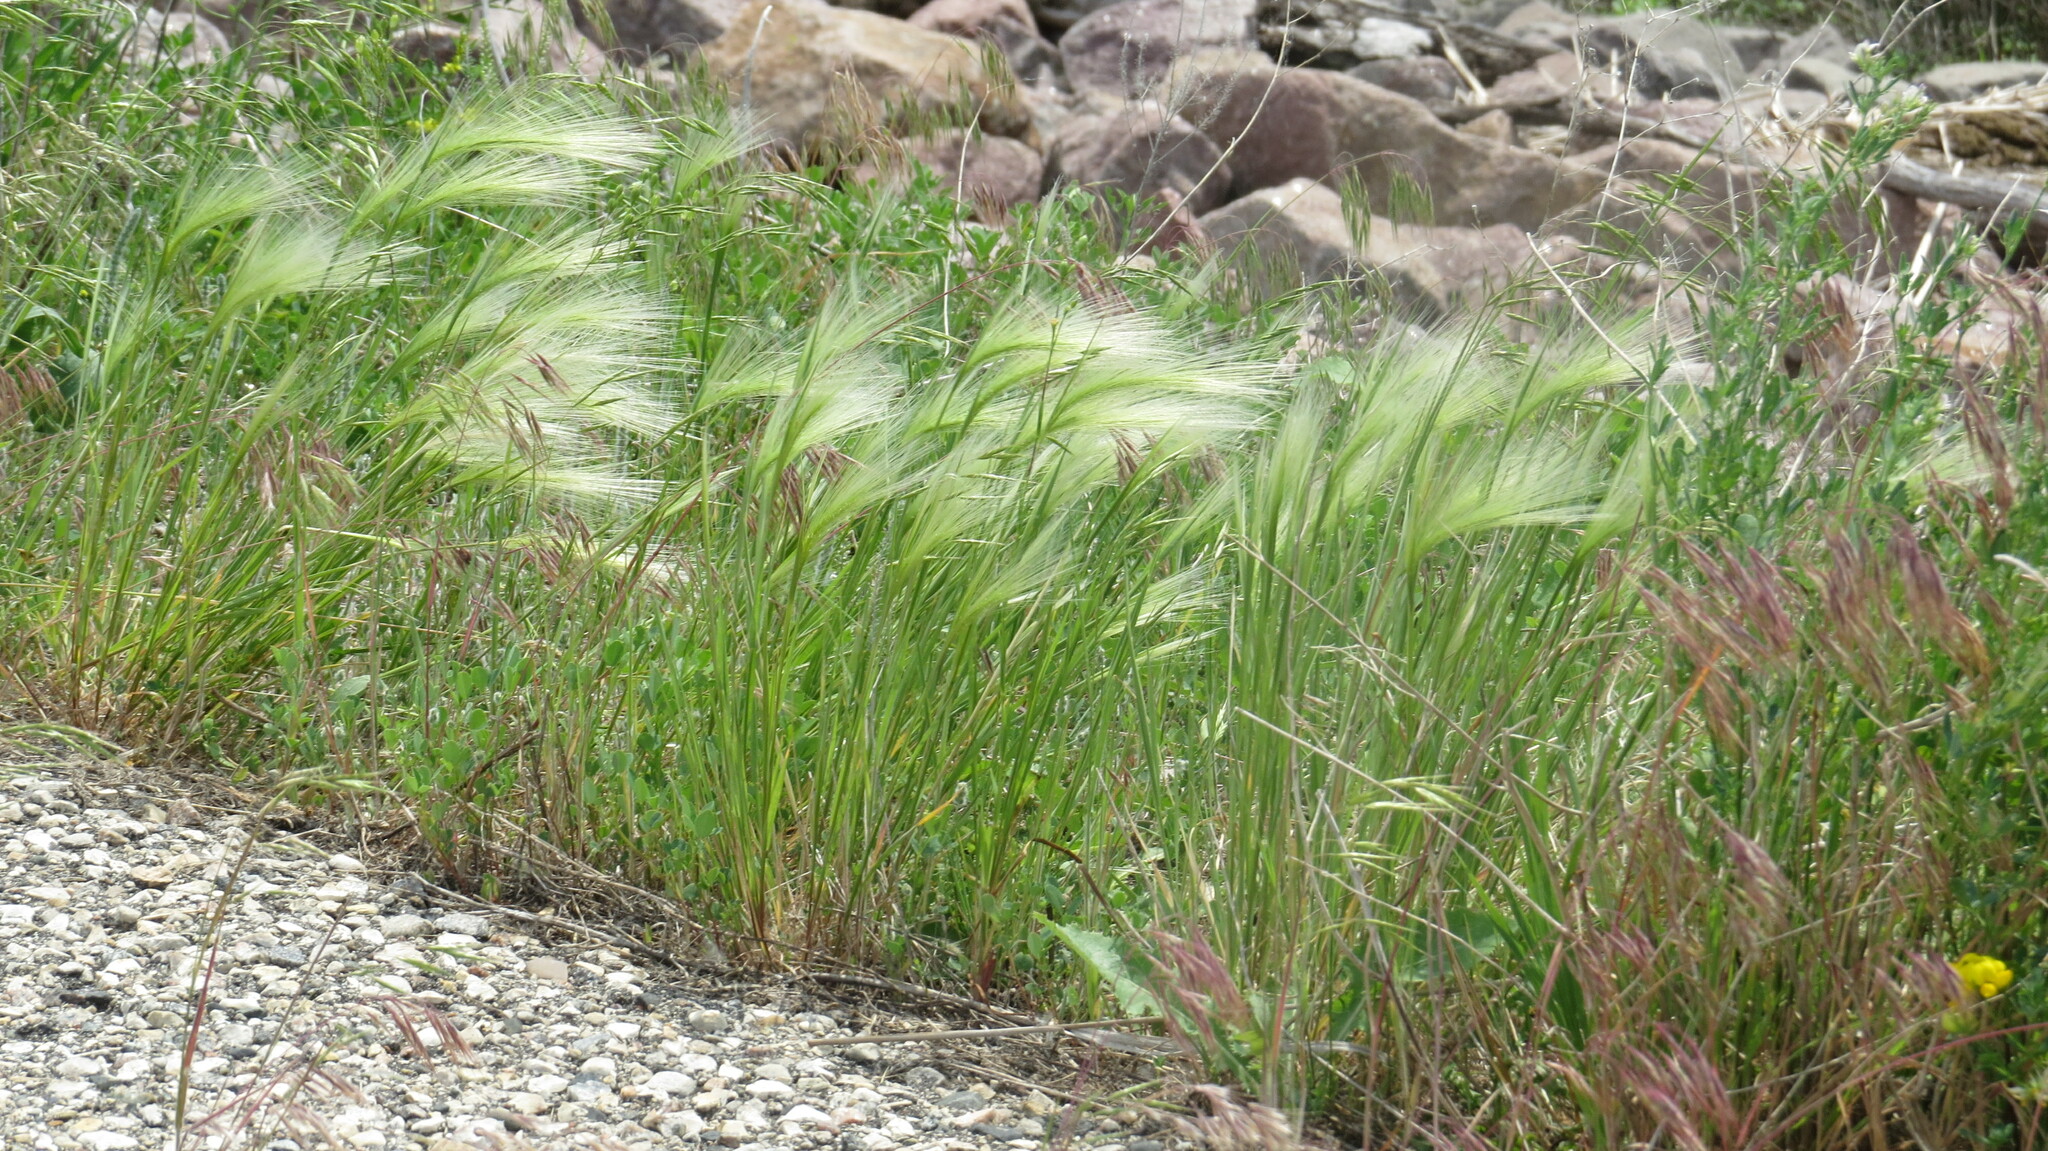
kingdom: Plantae
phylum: Tracheophyta
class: Liliopsida
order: Poales
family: Poaceae
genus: Hordeum
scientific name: Hordeum jubatum
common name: Foxtail barley
